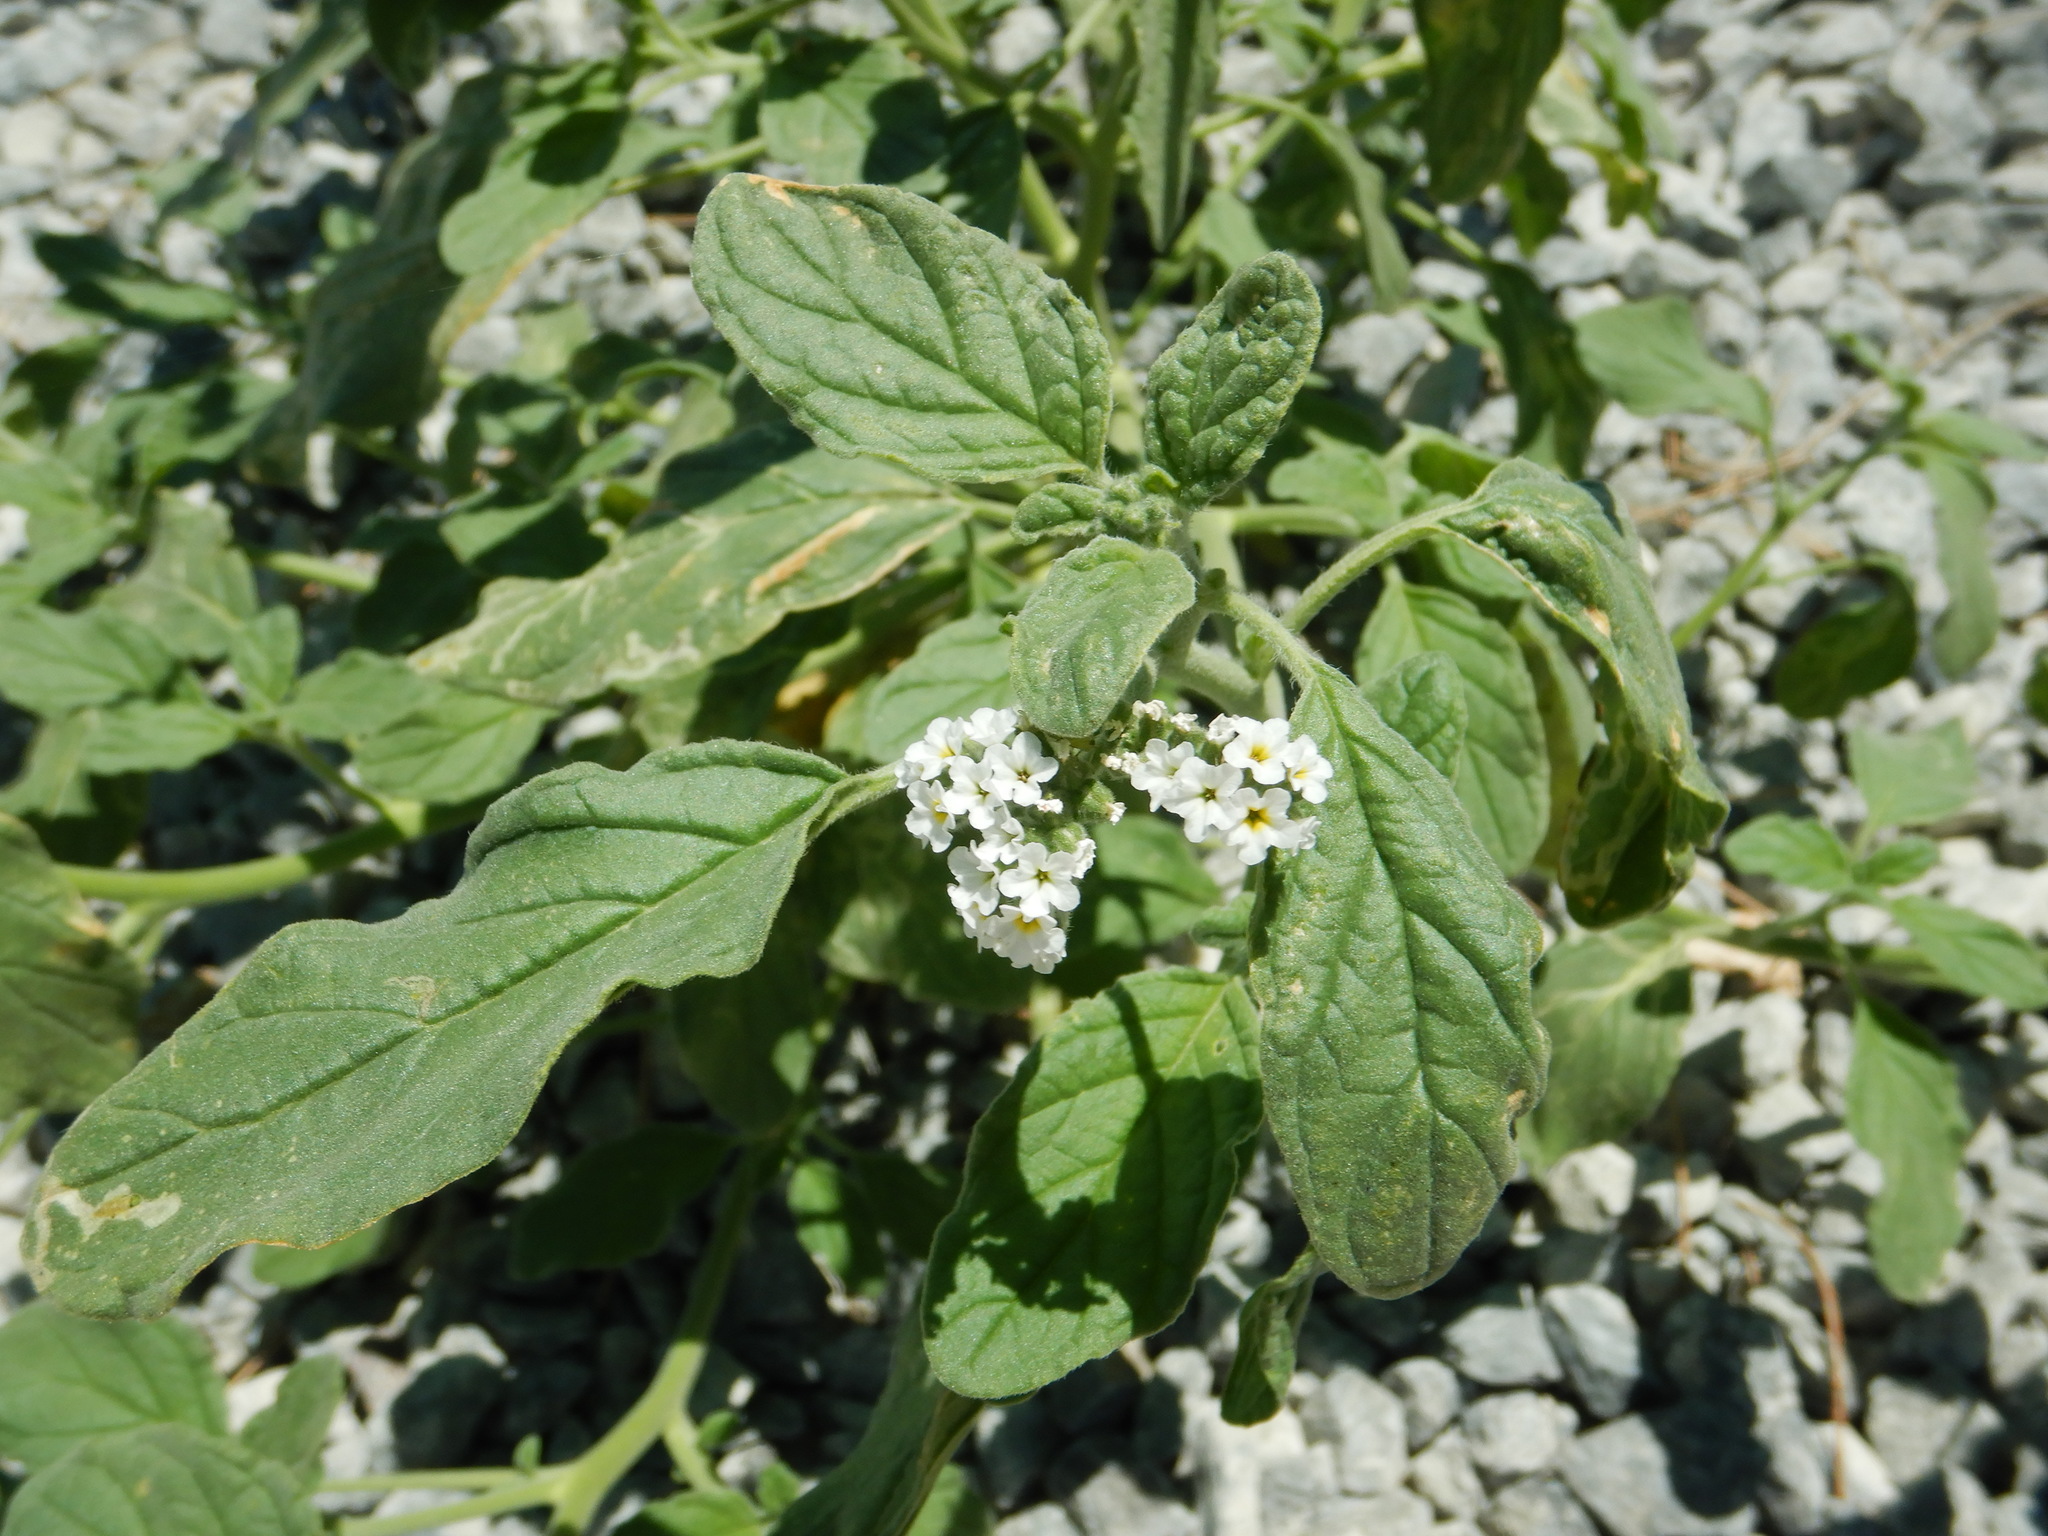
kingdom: Plantae
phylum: Tracheophyta
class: Magnoliopsida
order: Boraginales
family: Heliotropiaceae
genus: Heliotropium
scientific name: Heliotropium europaeum
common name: European heliotrope
